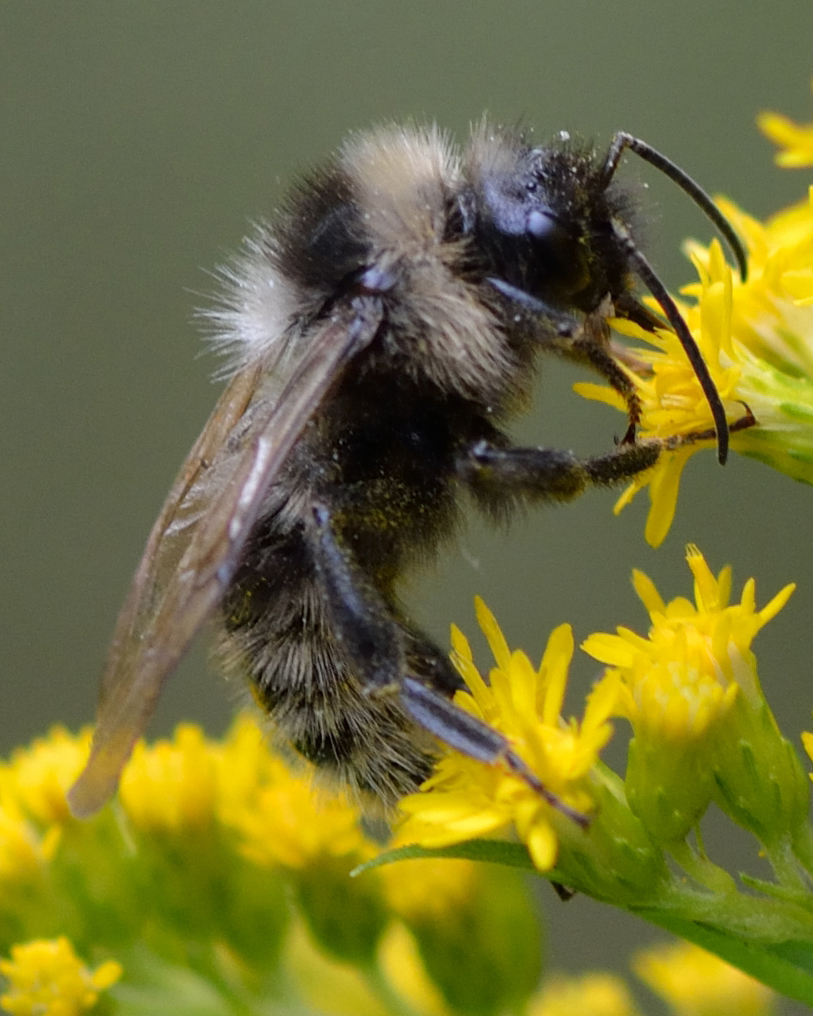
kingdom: Animalia
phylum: Arthropoda
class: Insecta
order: Hymenoptera
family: Apidae
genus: Bombus
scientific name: Bombus
